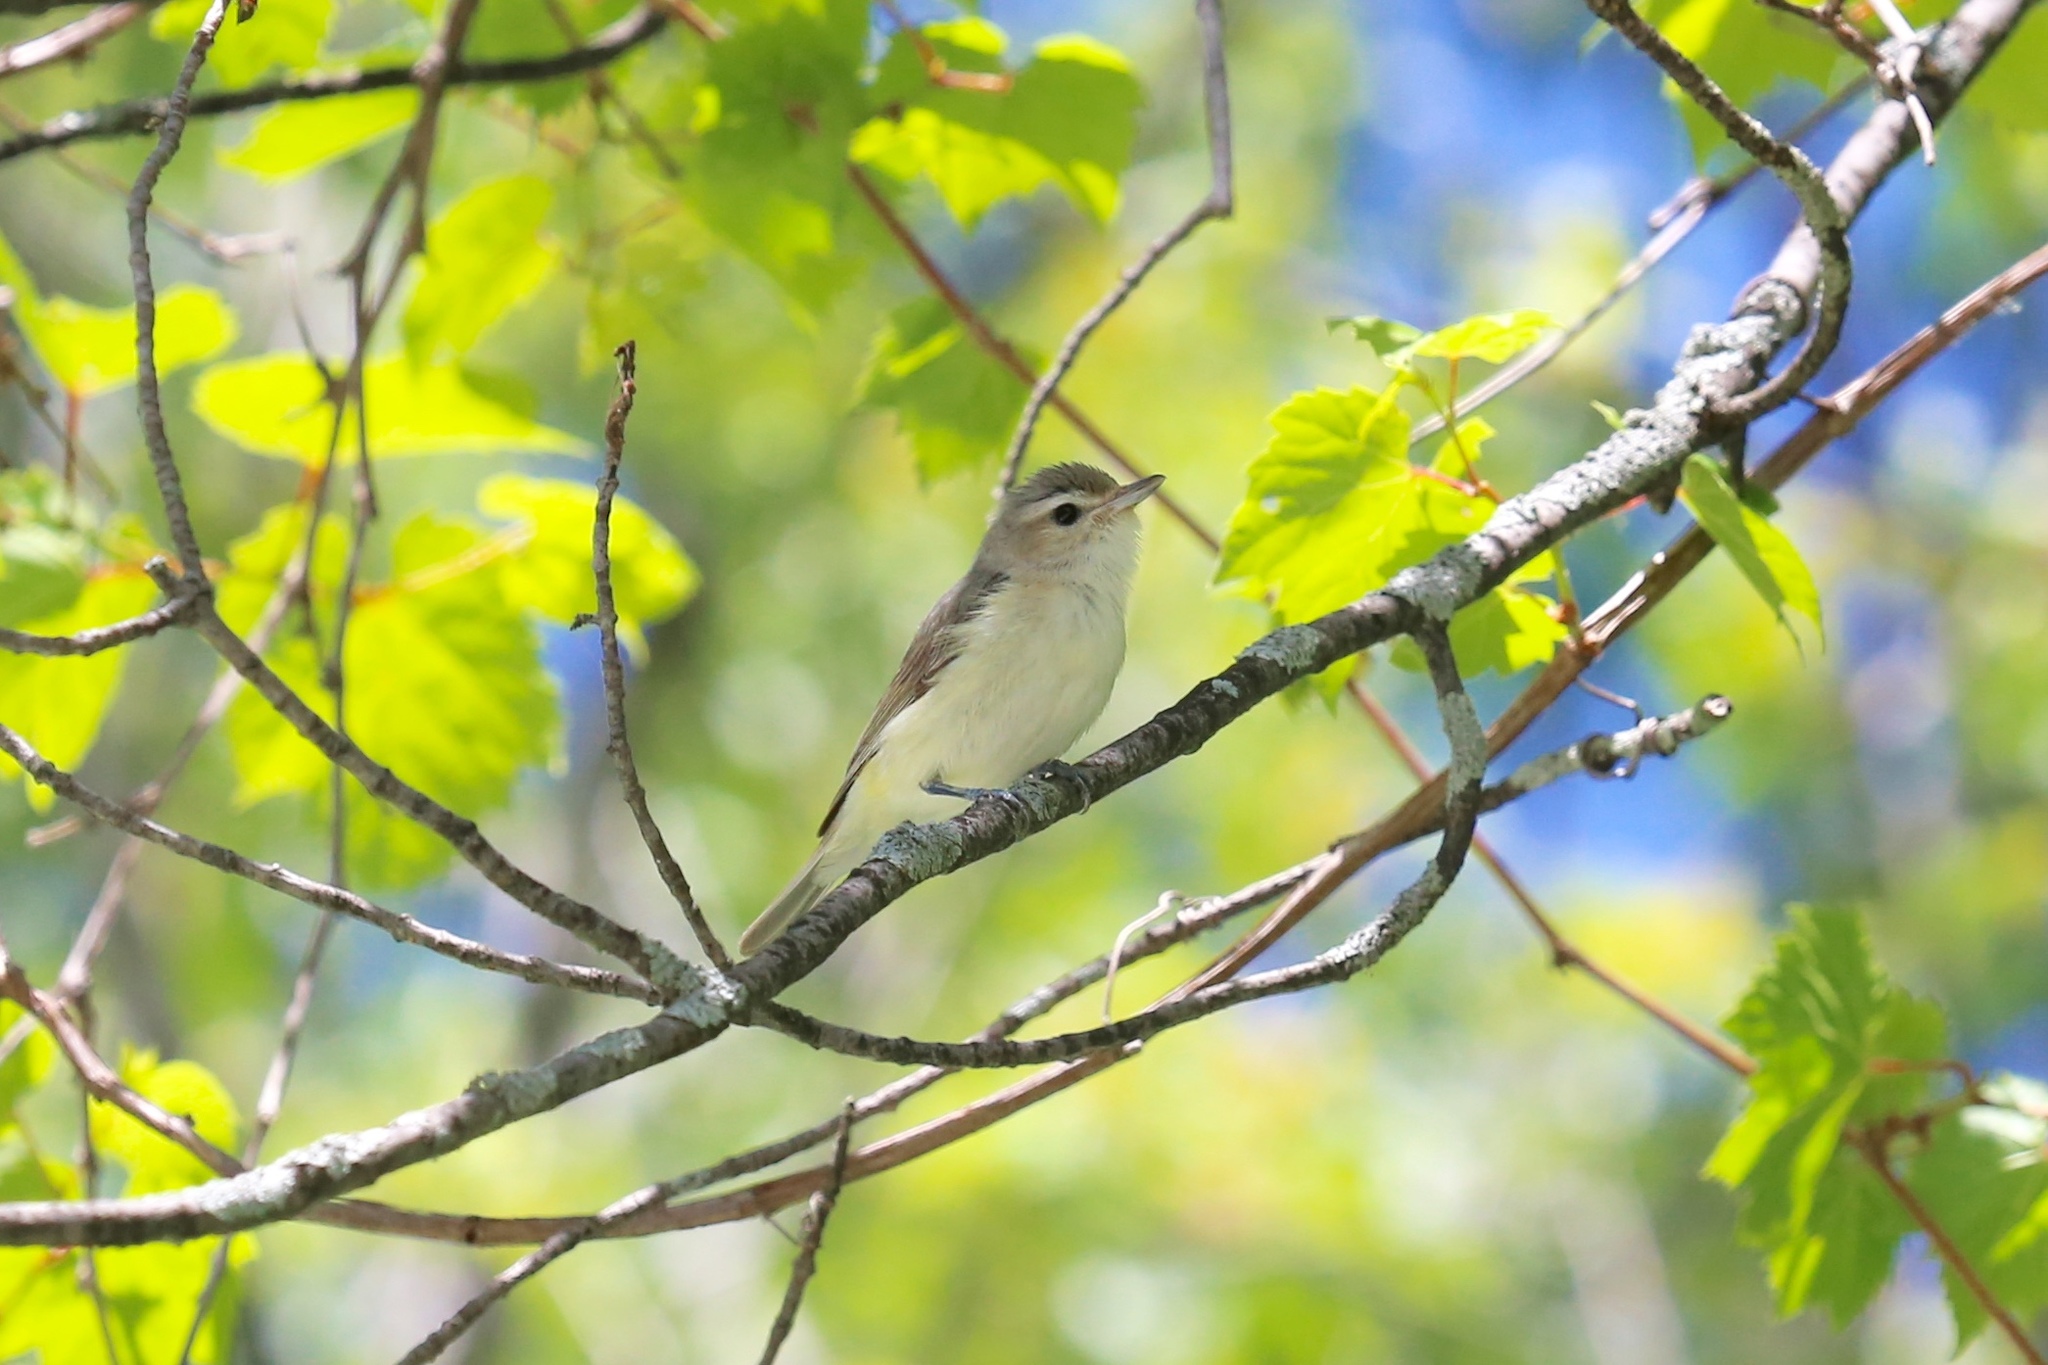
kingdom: Animalia
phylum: Chordata
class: Aves
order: Passeriformes
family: Vireonidae
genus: Vireo
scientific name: Vireo gilvus
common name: Warbling vireo
